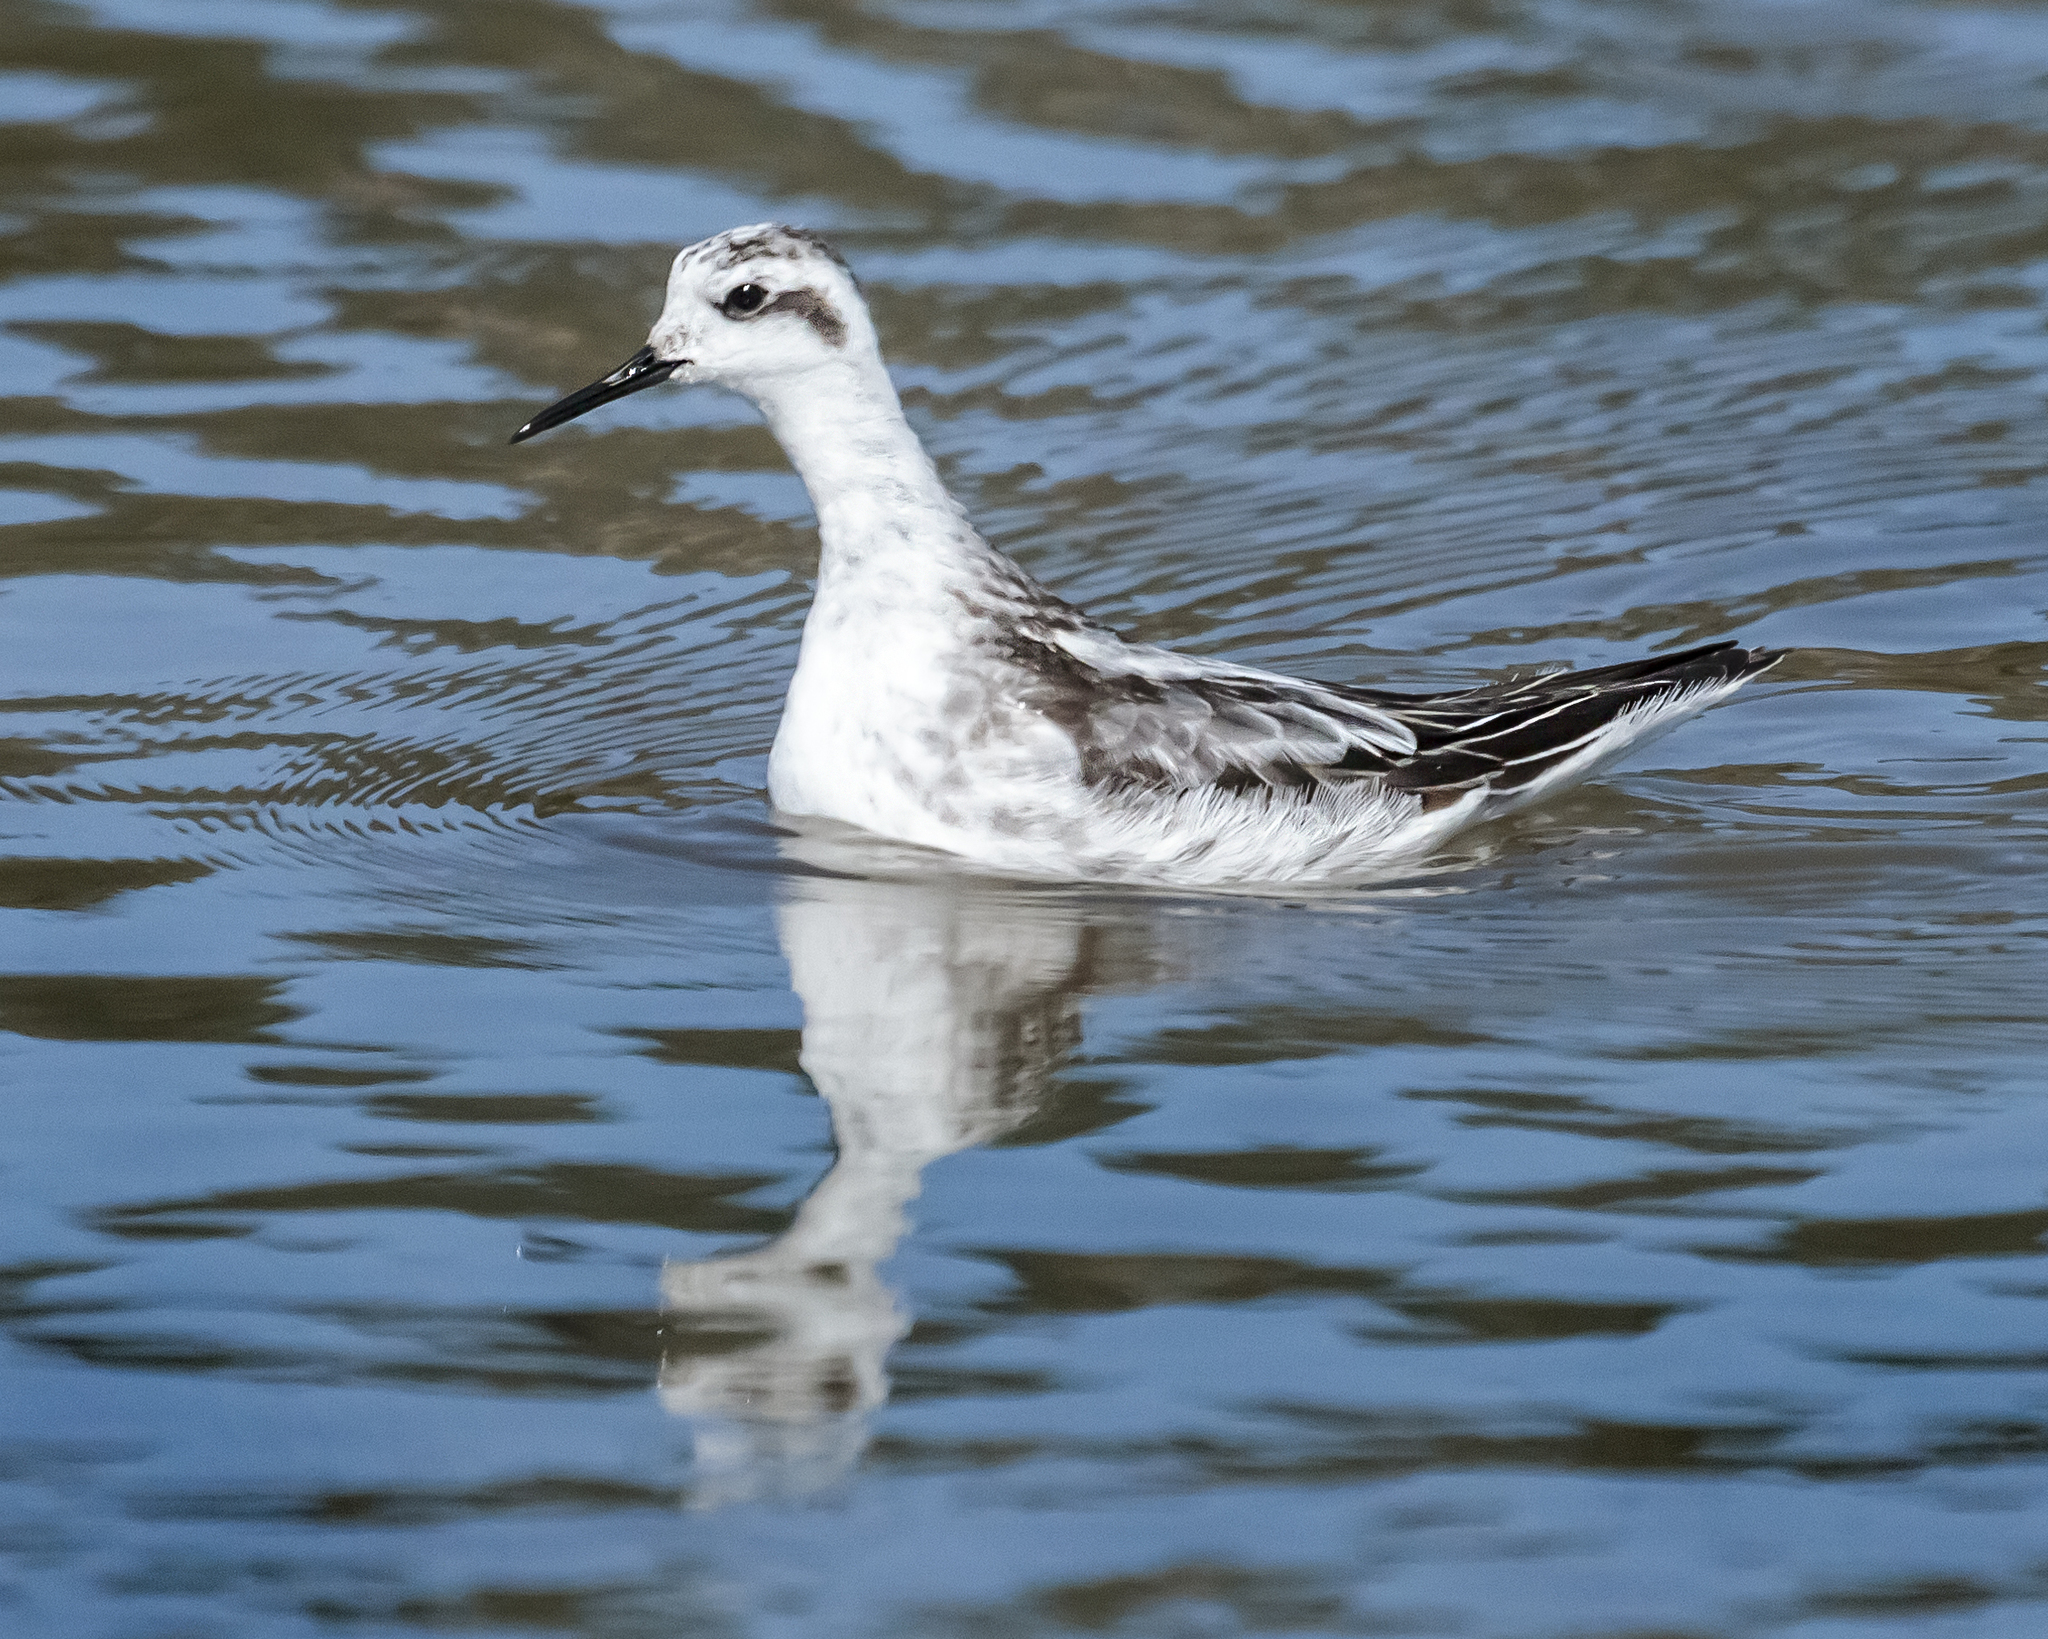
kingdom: Animalia
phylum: Chordata
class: Aves
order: Charadriiformes
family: Scolopacidae
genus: Phalaropus
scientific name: Phalaropus lobatus
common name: Red-necked phalarope
